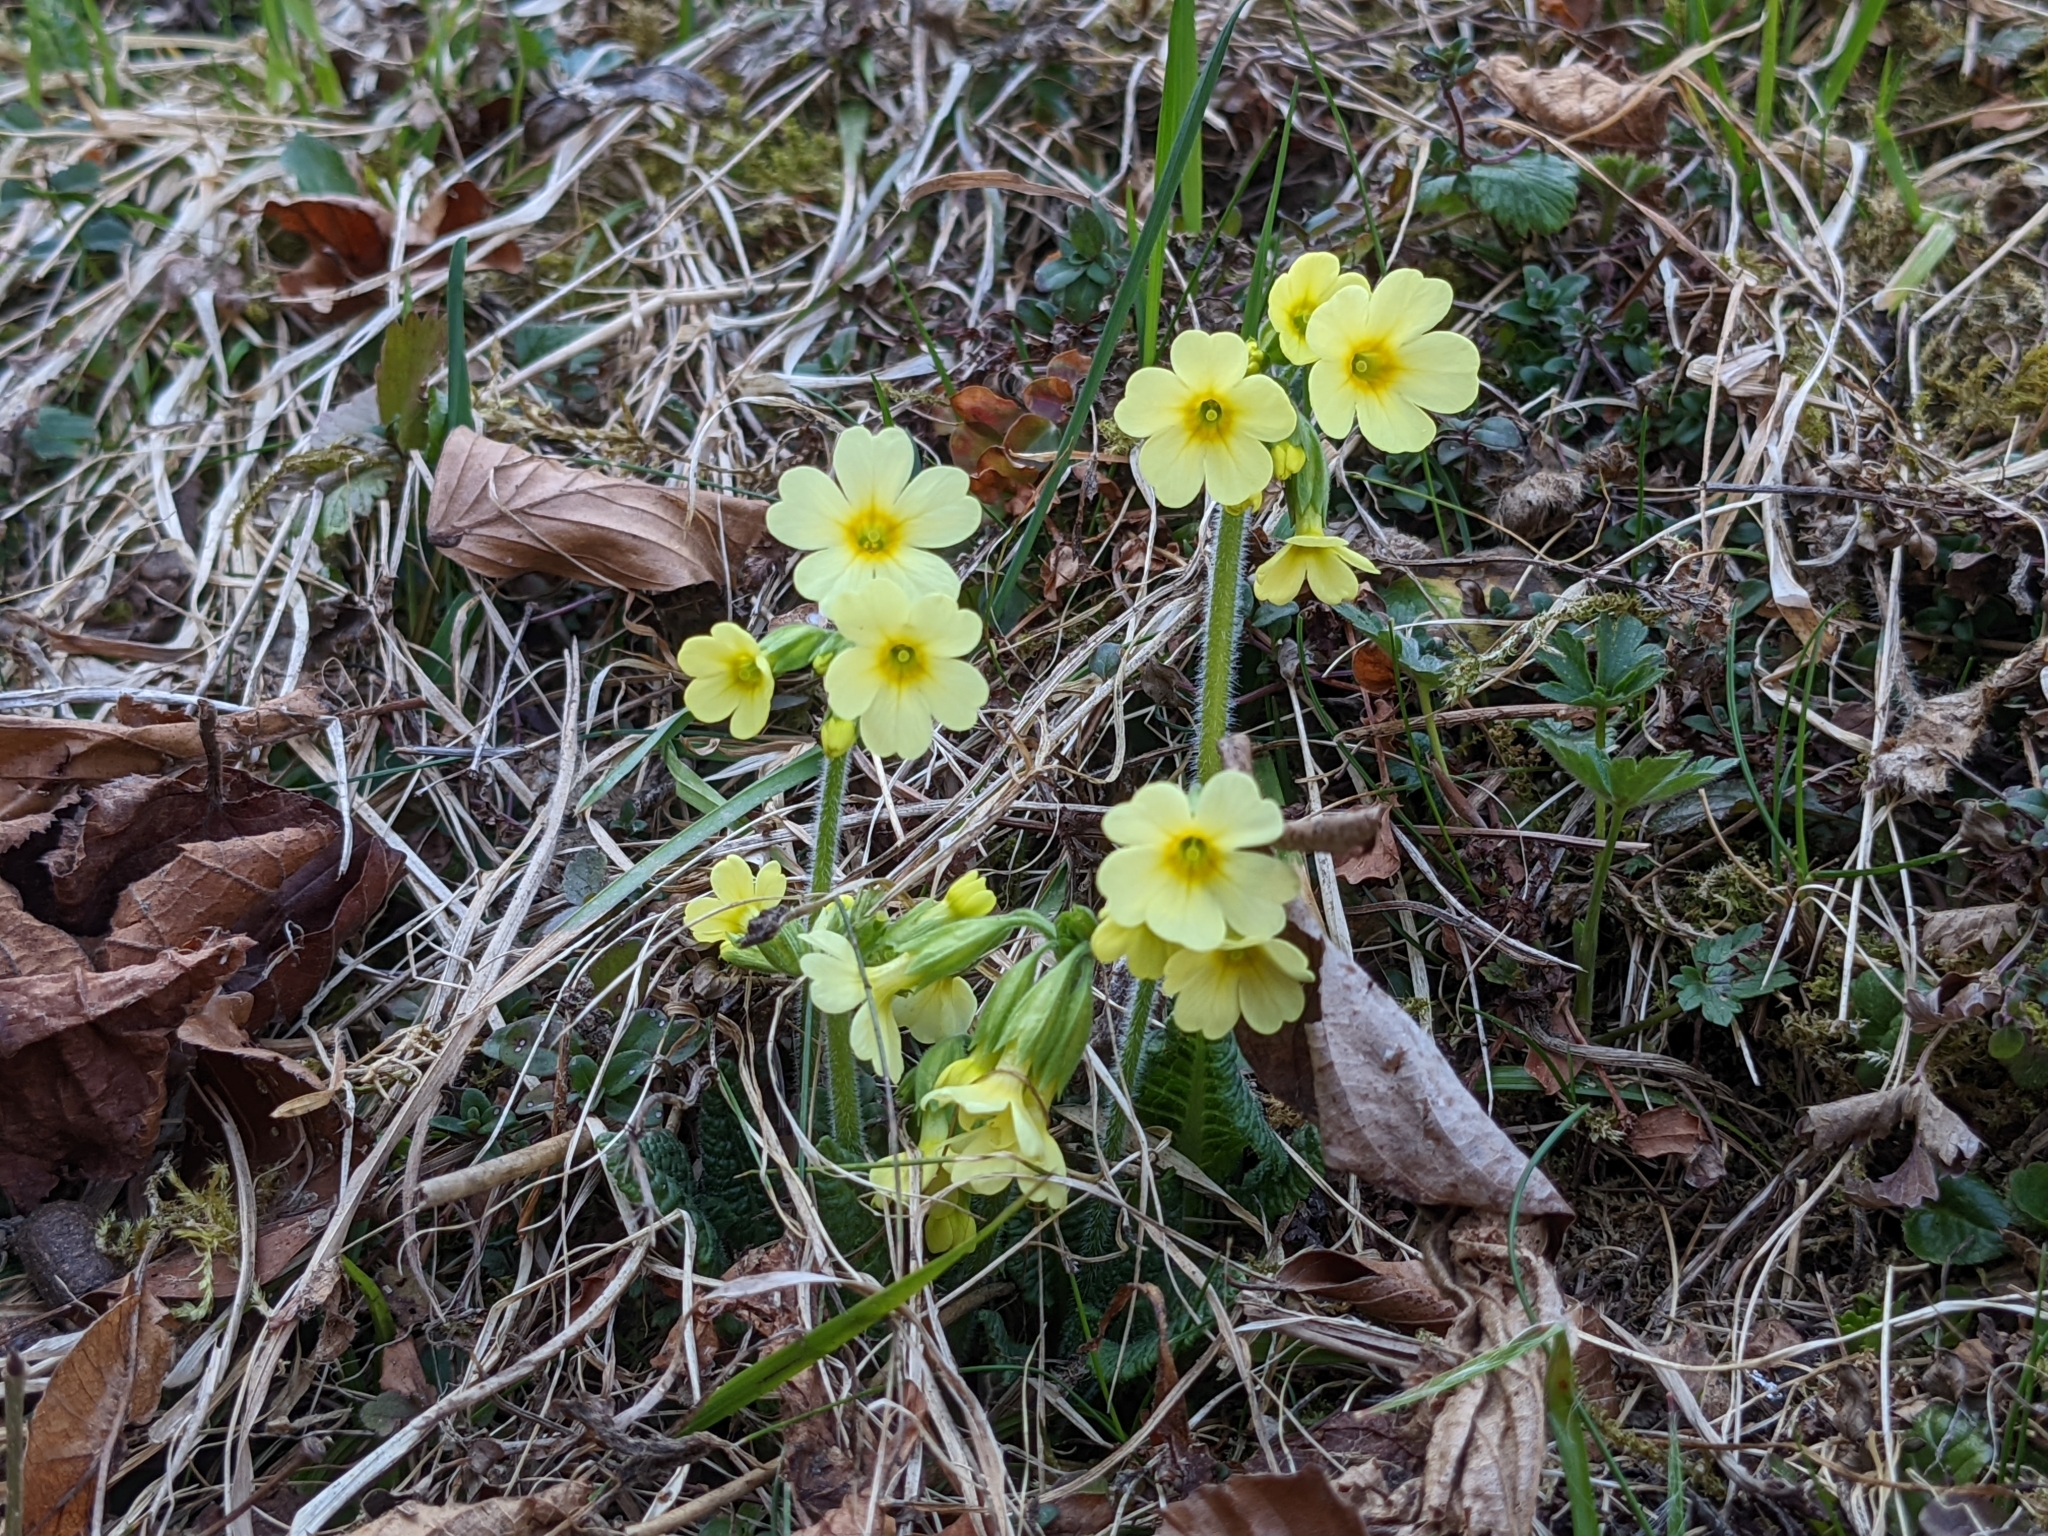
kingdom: Plantae
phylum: Tracheophyta
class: Magnoliopsida
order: Ericales
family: Primulaceae
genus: Primula
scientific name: Primula elatior
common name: Oxlip
